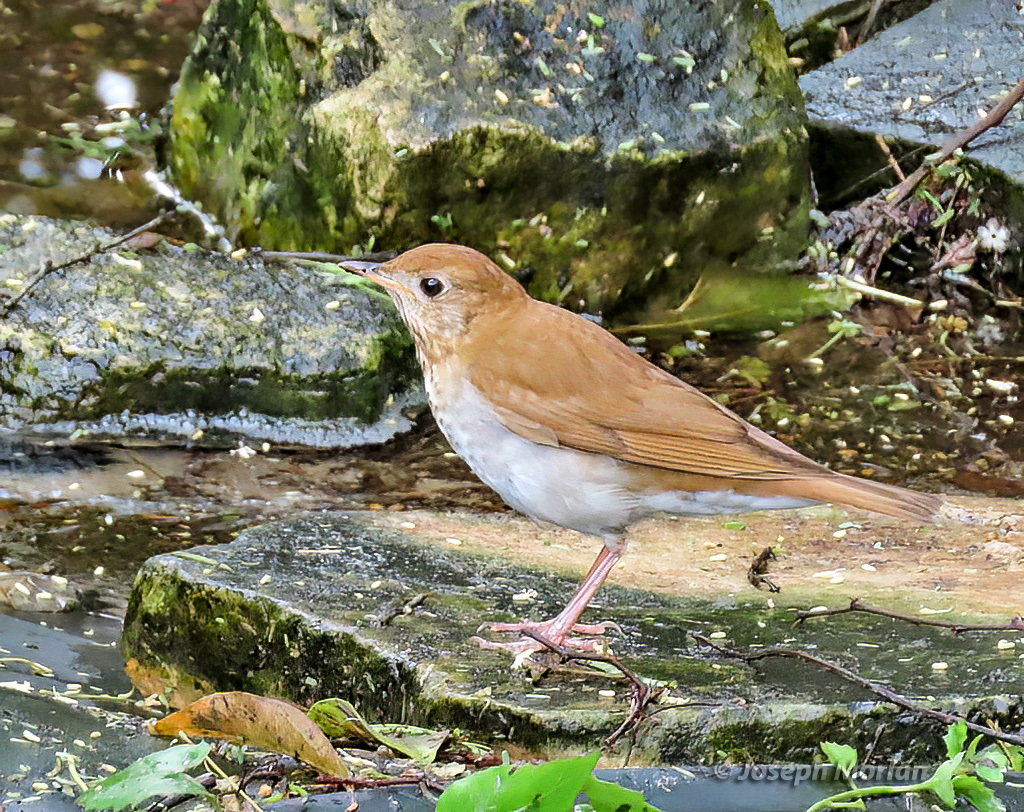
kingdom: Animalia
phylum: Chordata
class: Aves
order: Passeriformes
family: Turdidae
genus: Catharus
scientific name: Catharus fuscescens
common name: Veery
